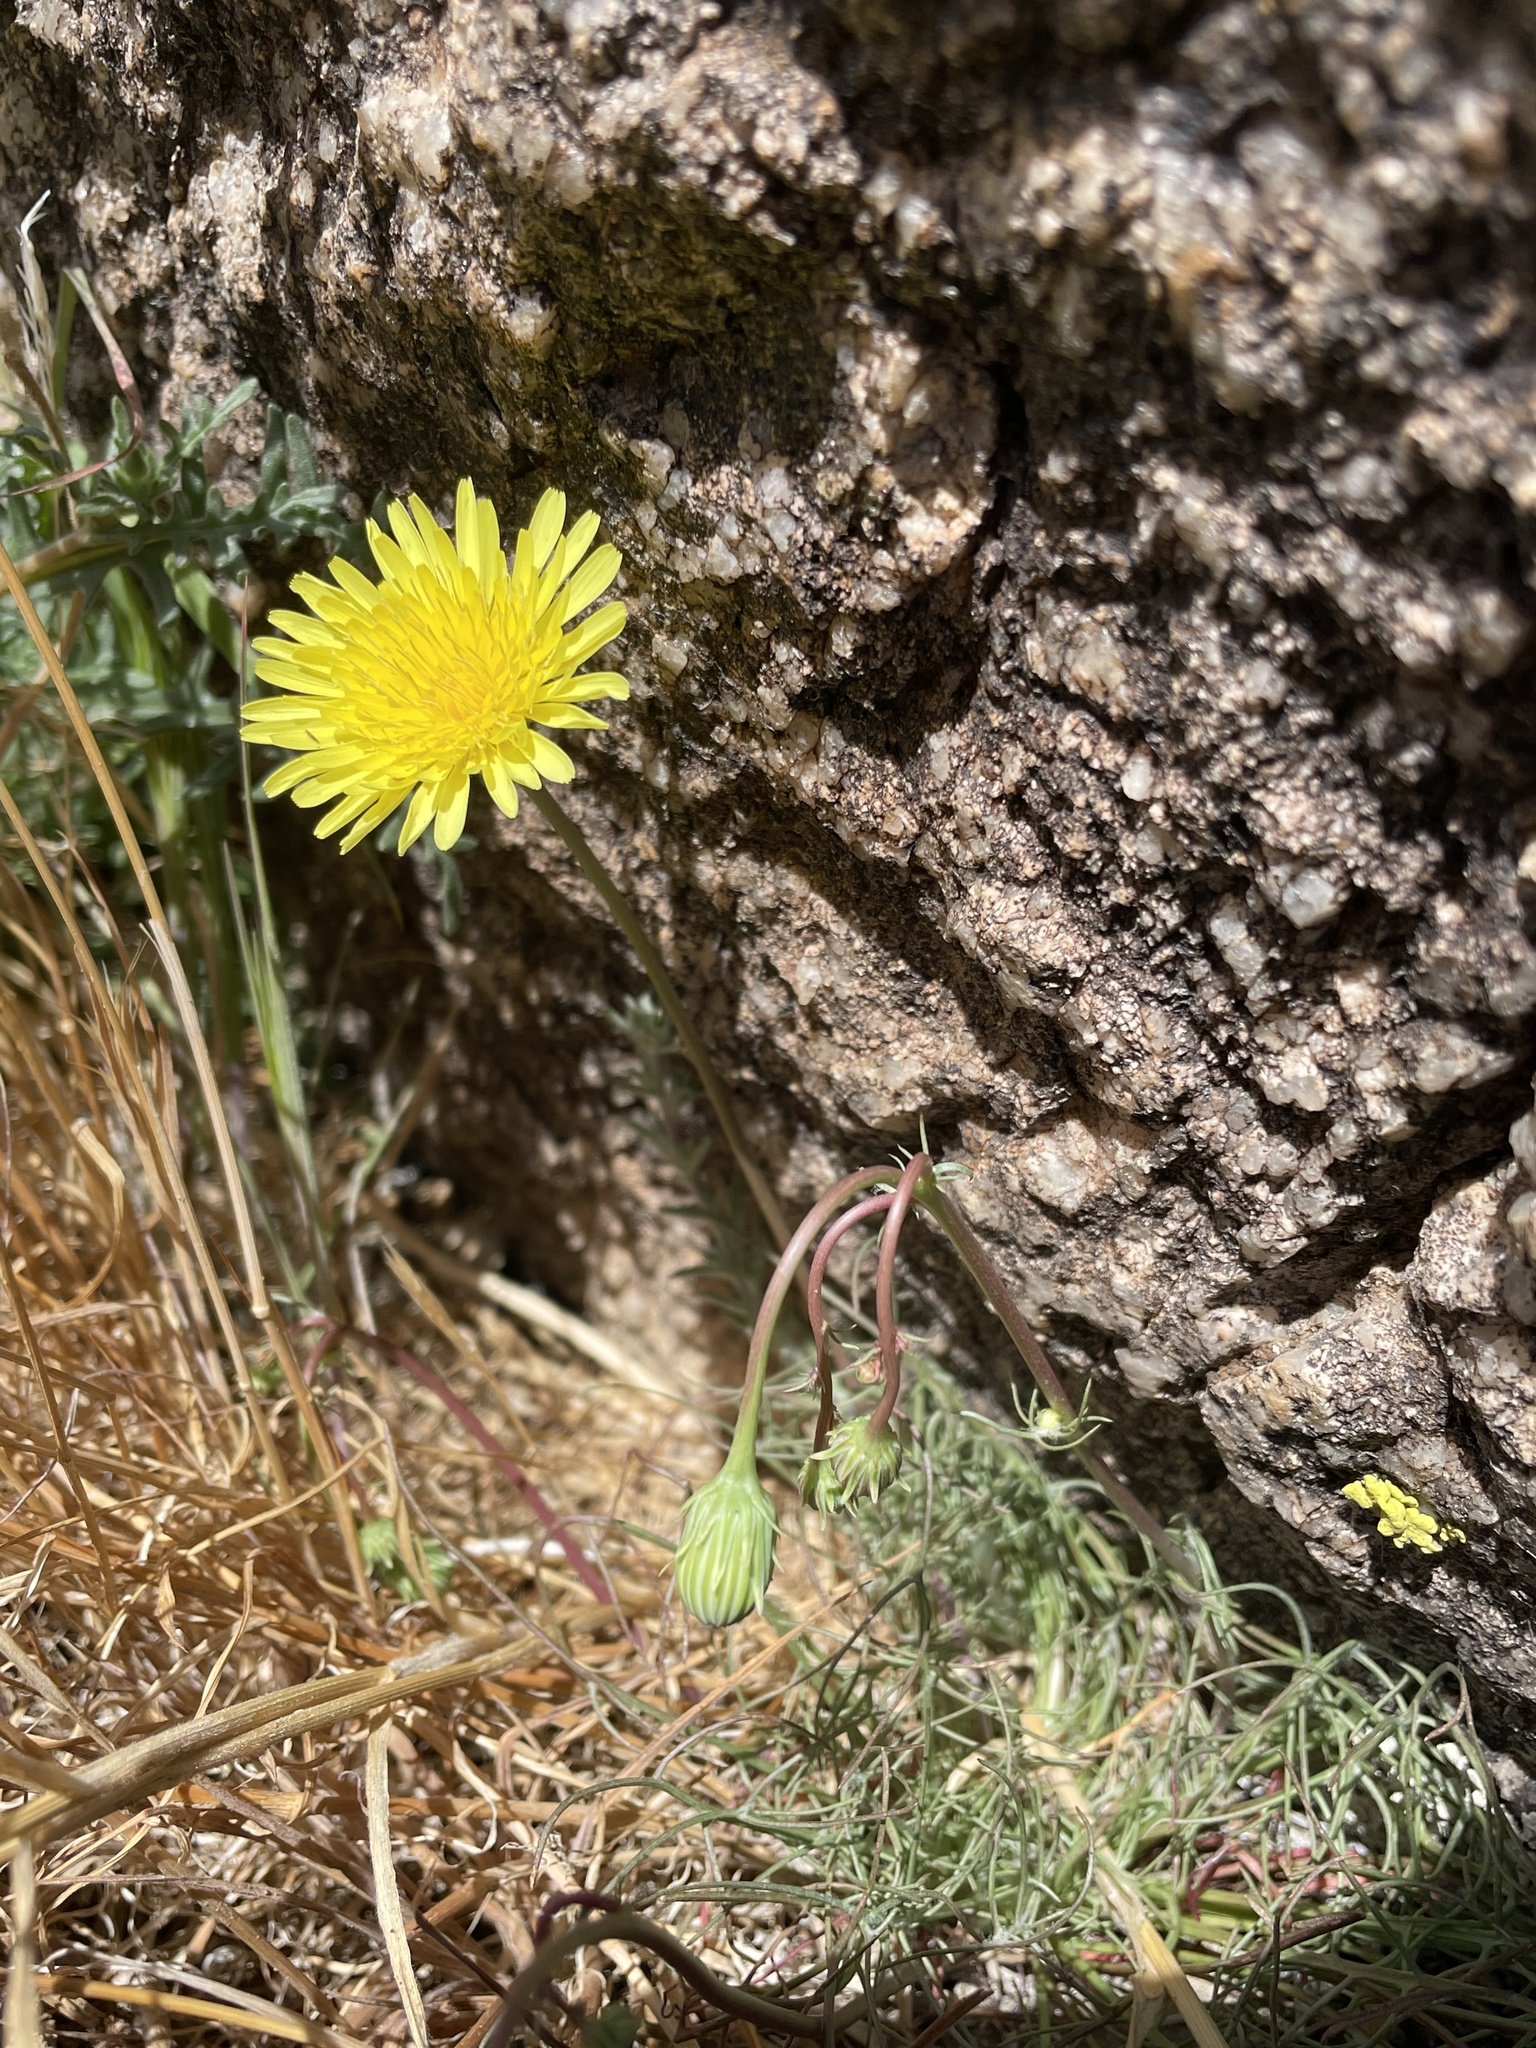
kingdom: Plantae
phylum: Tracheophyta
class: Magnoliopsida
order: Asterales
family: Asteraceae
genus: Malacothrix
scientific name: Malacothrix glabrata
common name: Smooth desert-dandelion
